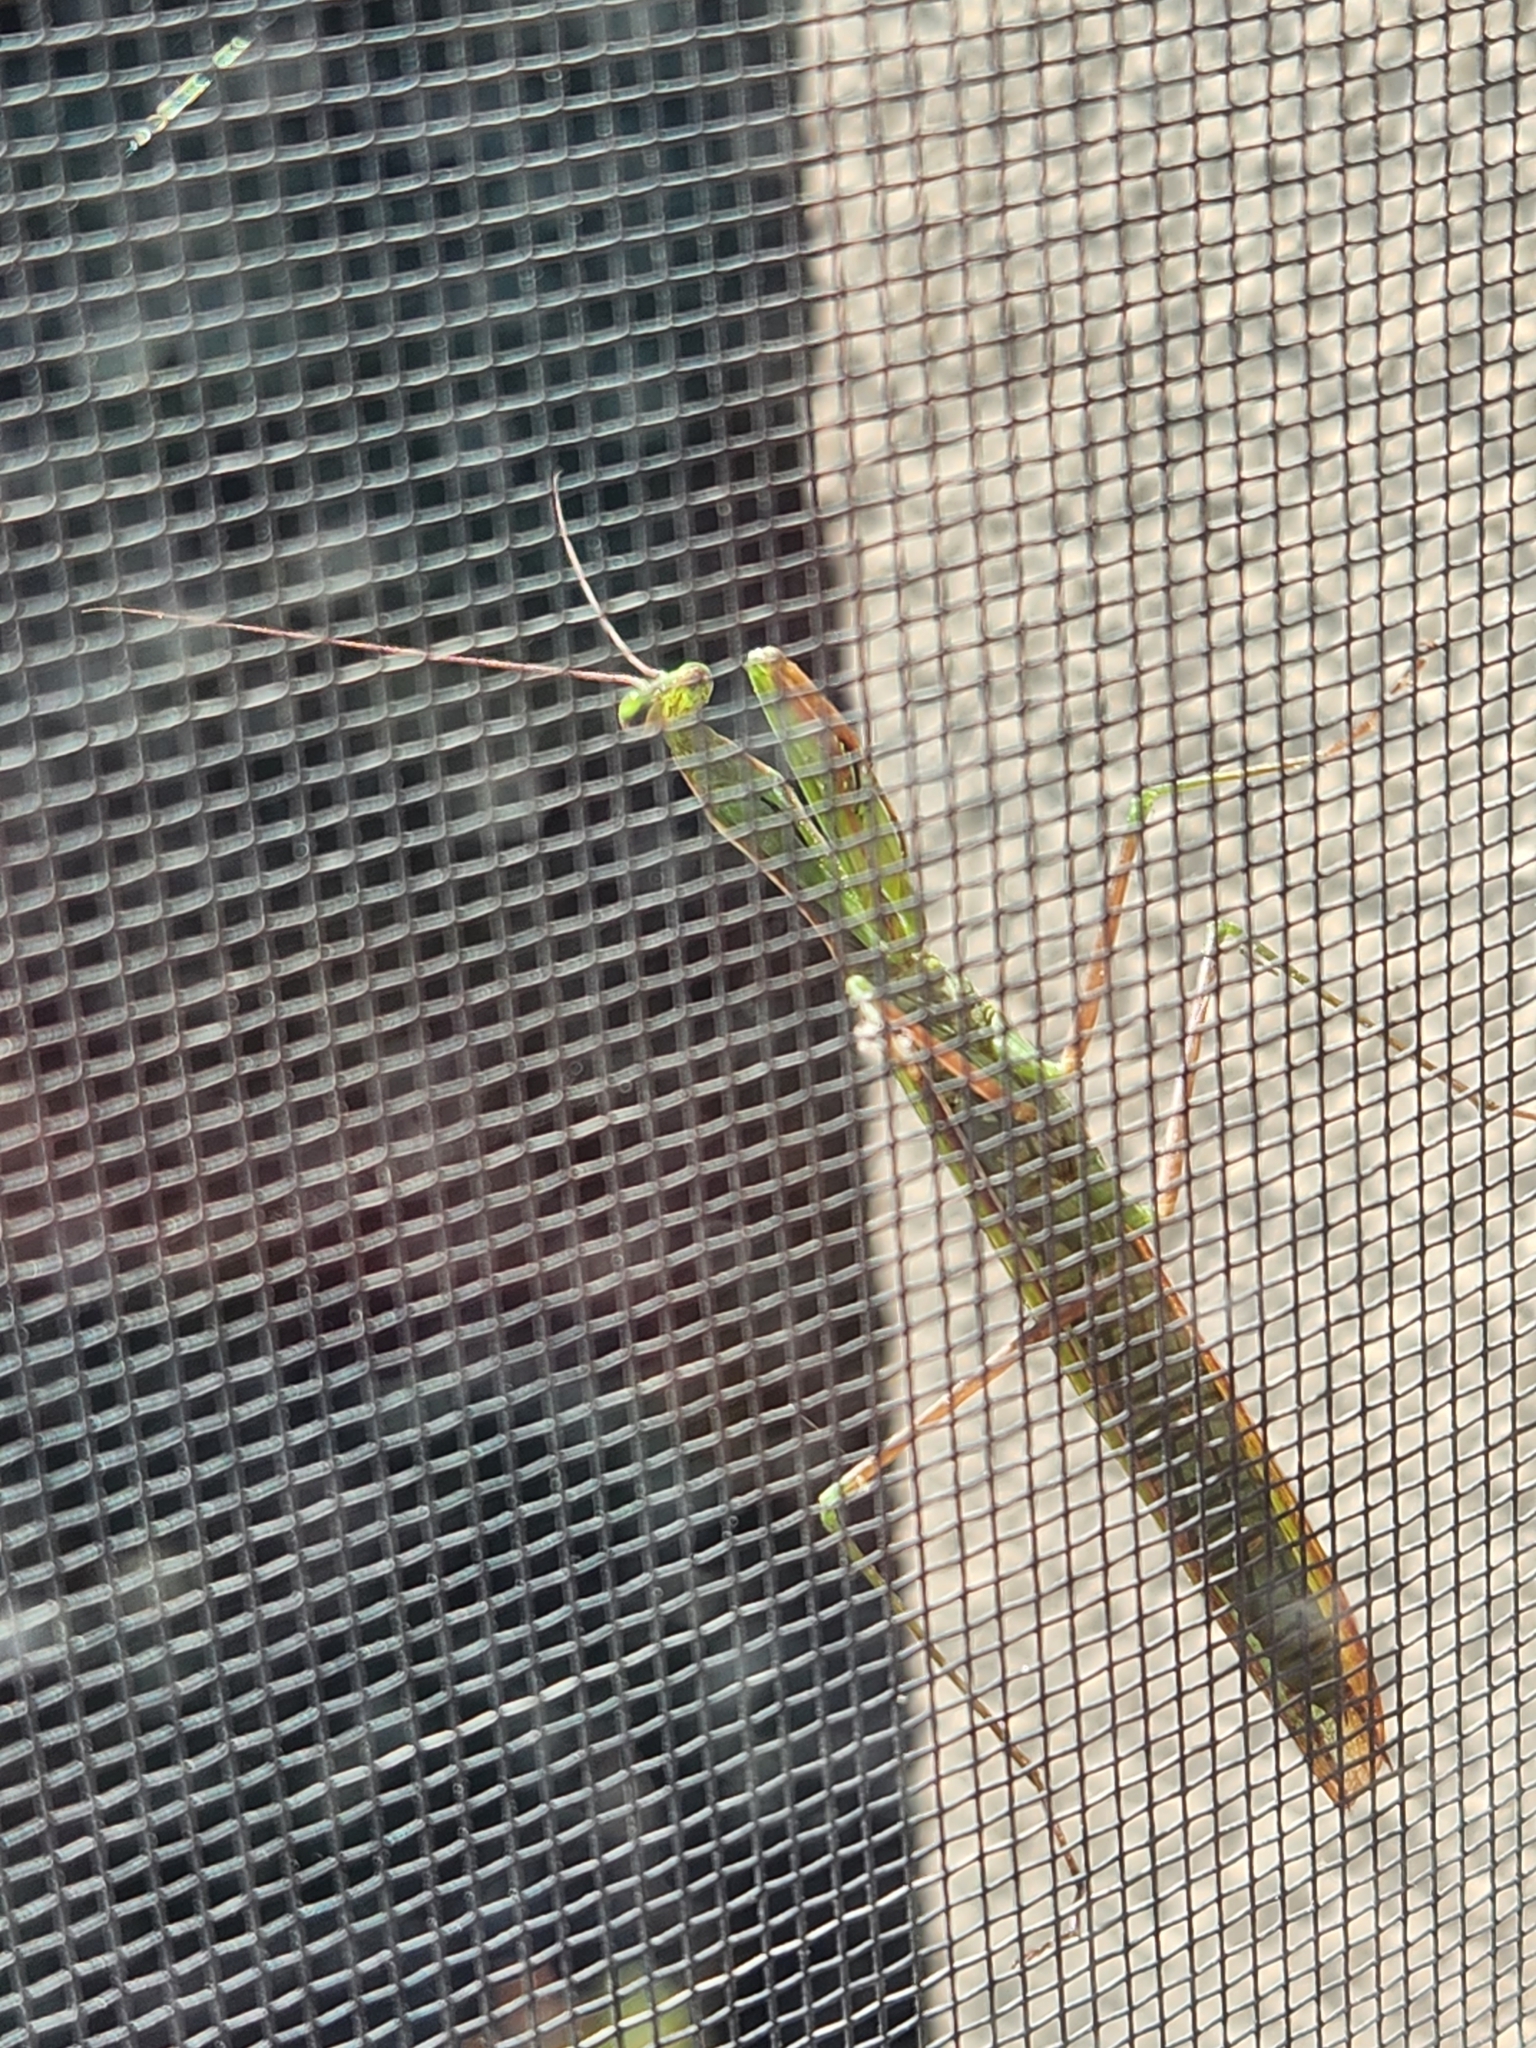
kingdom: Animalia
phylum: Arthropoda
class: Insecta
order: Mantodea
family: Mantidae
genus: Mantis
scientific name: Mantis religiosa
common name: Praying mantis
